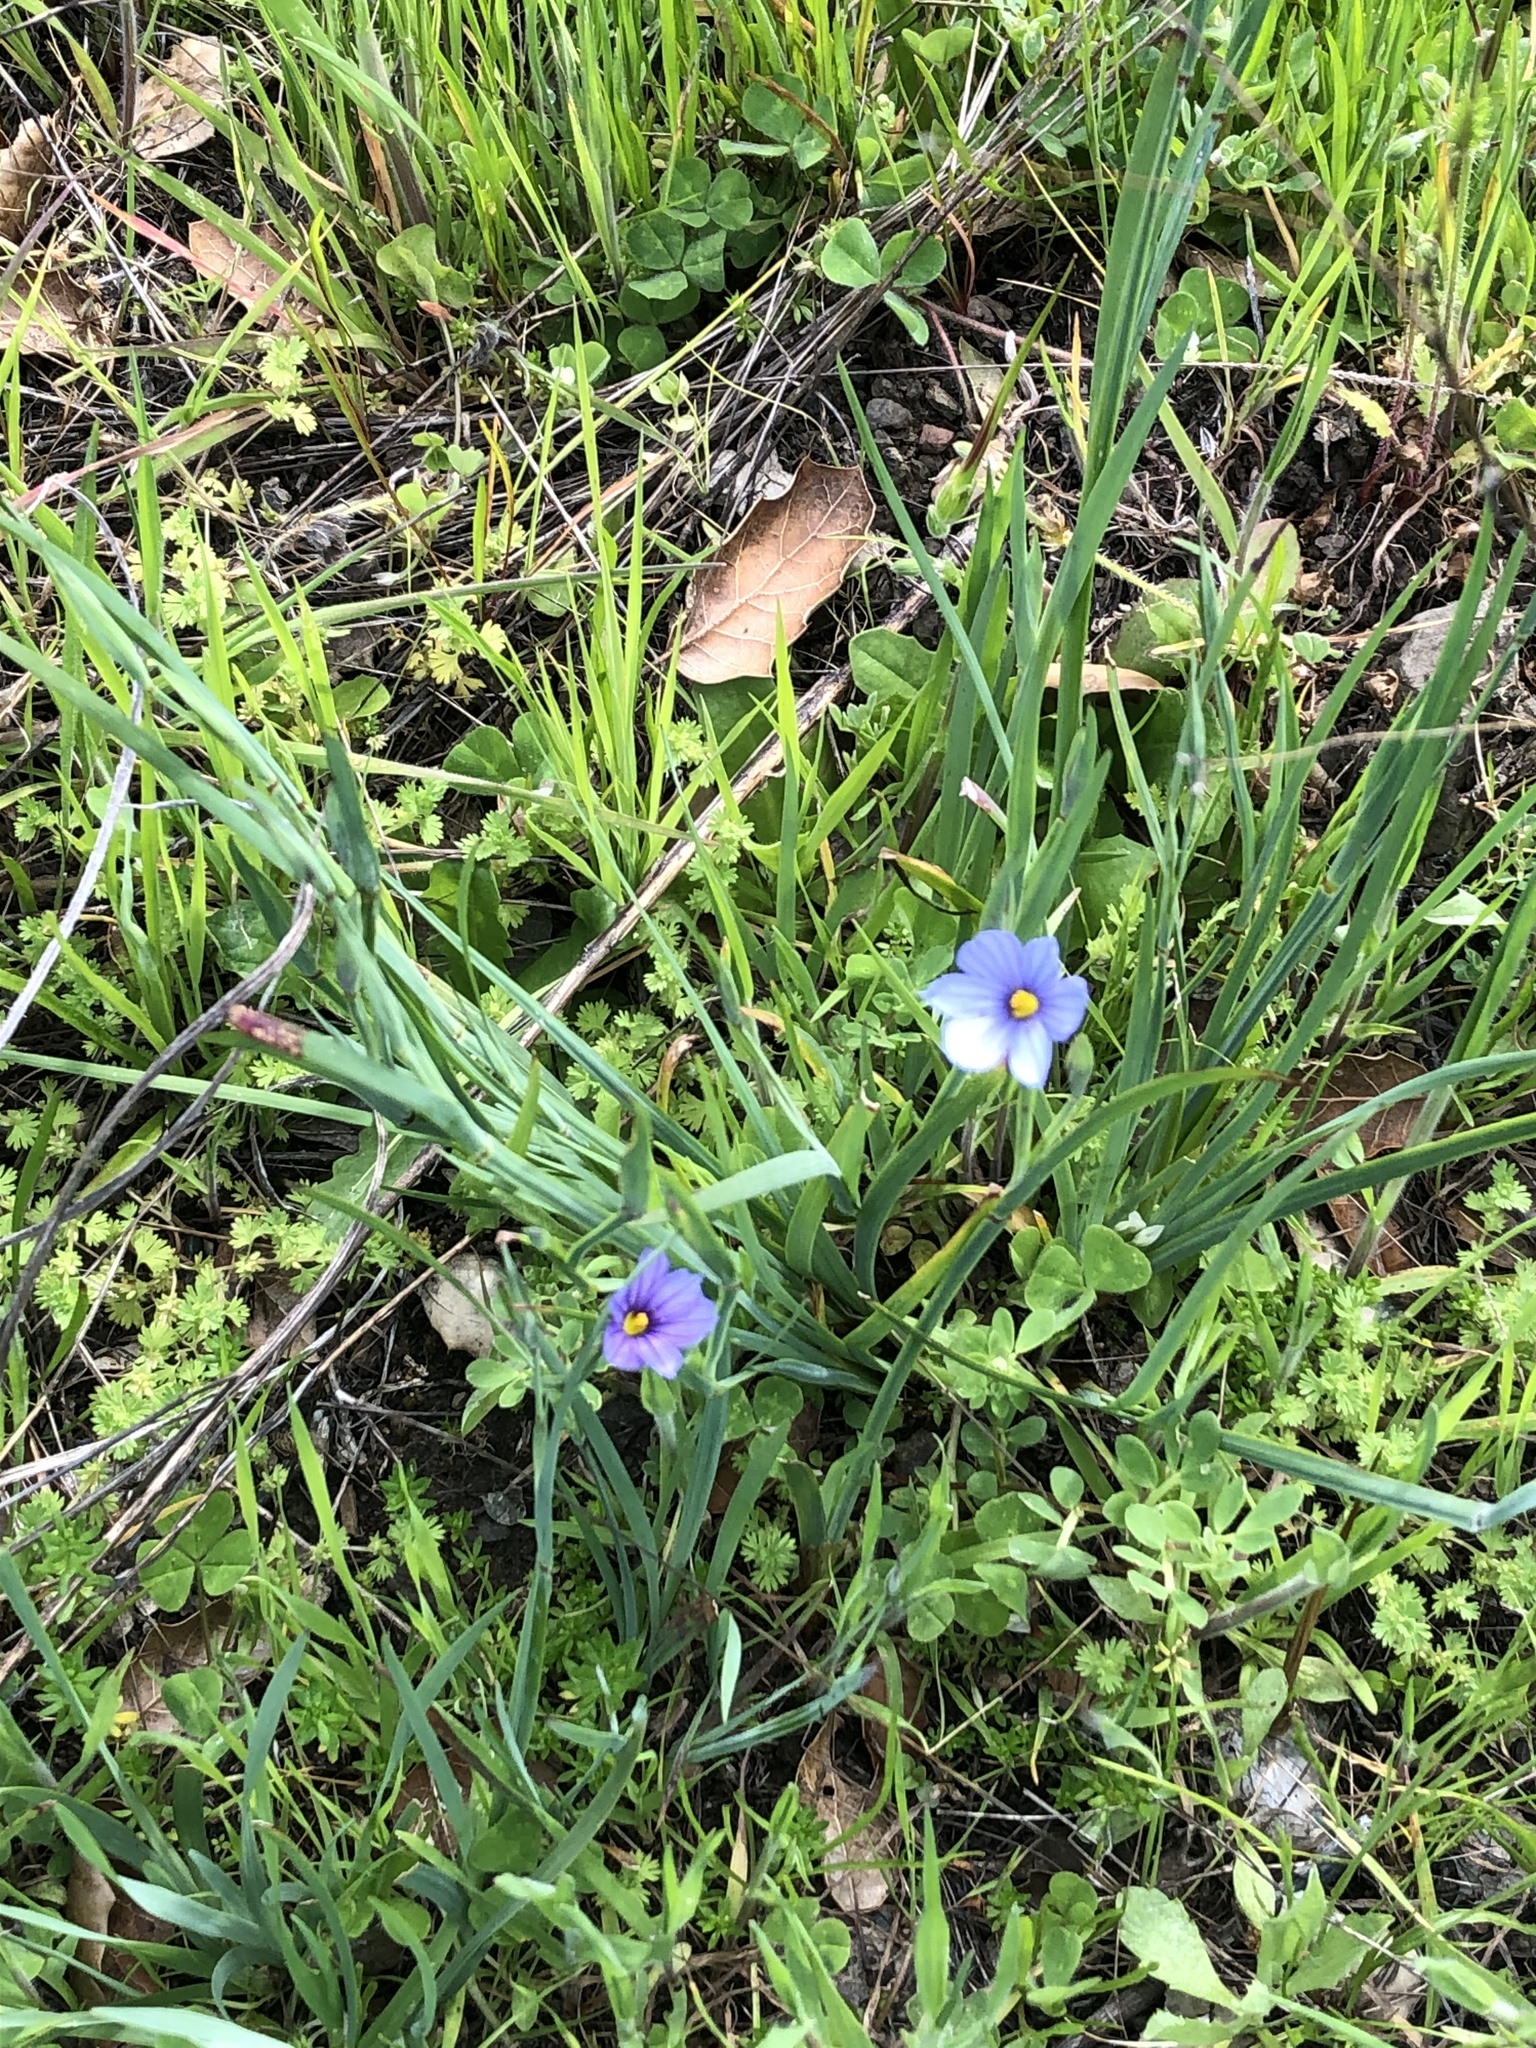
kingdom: Plantae
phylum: Tracheophyta
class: Liliopsida
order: Asparagales
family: Iridaceae
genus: Sisyrinchium
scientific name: Sisyrinchium bellum
